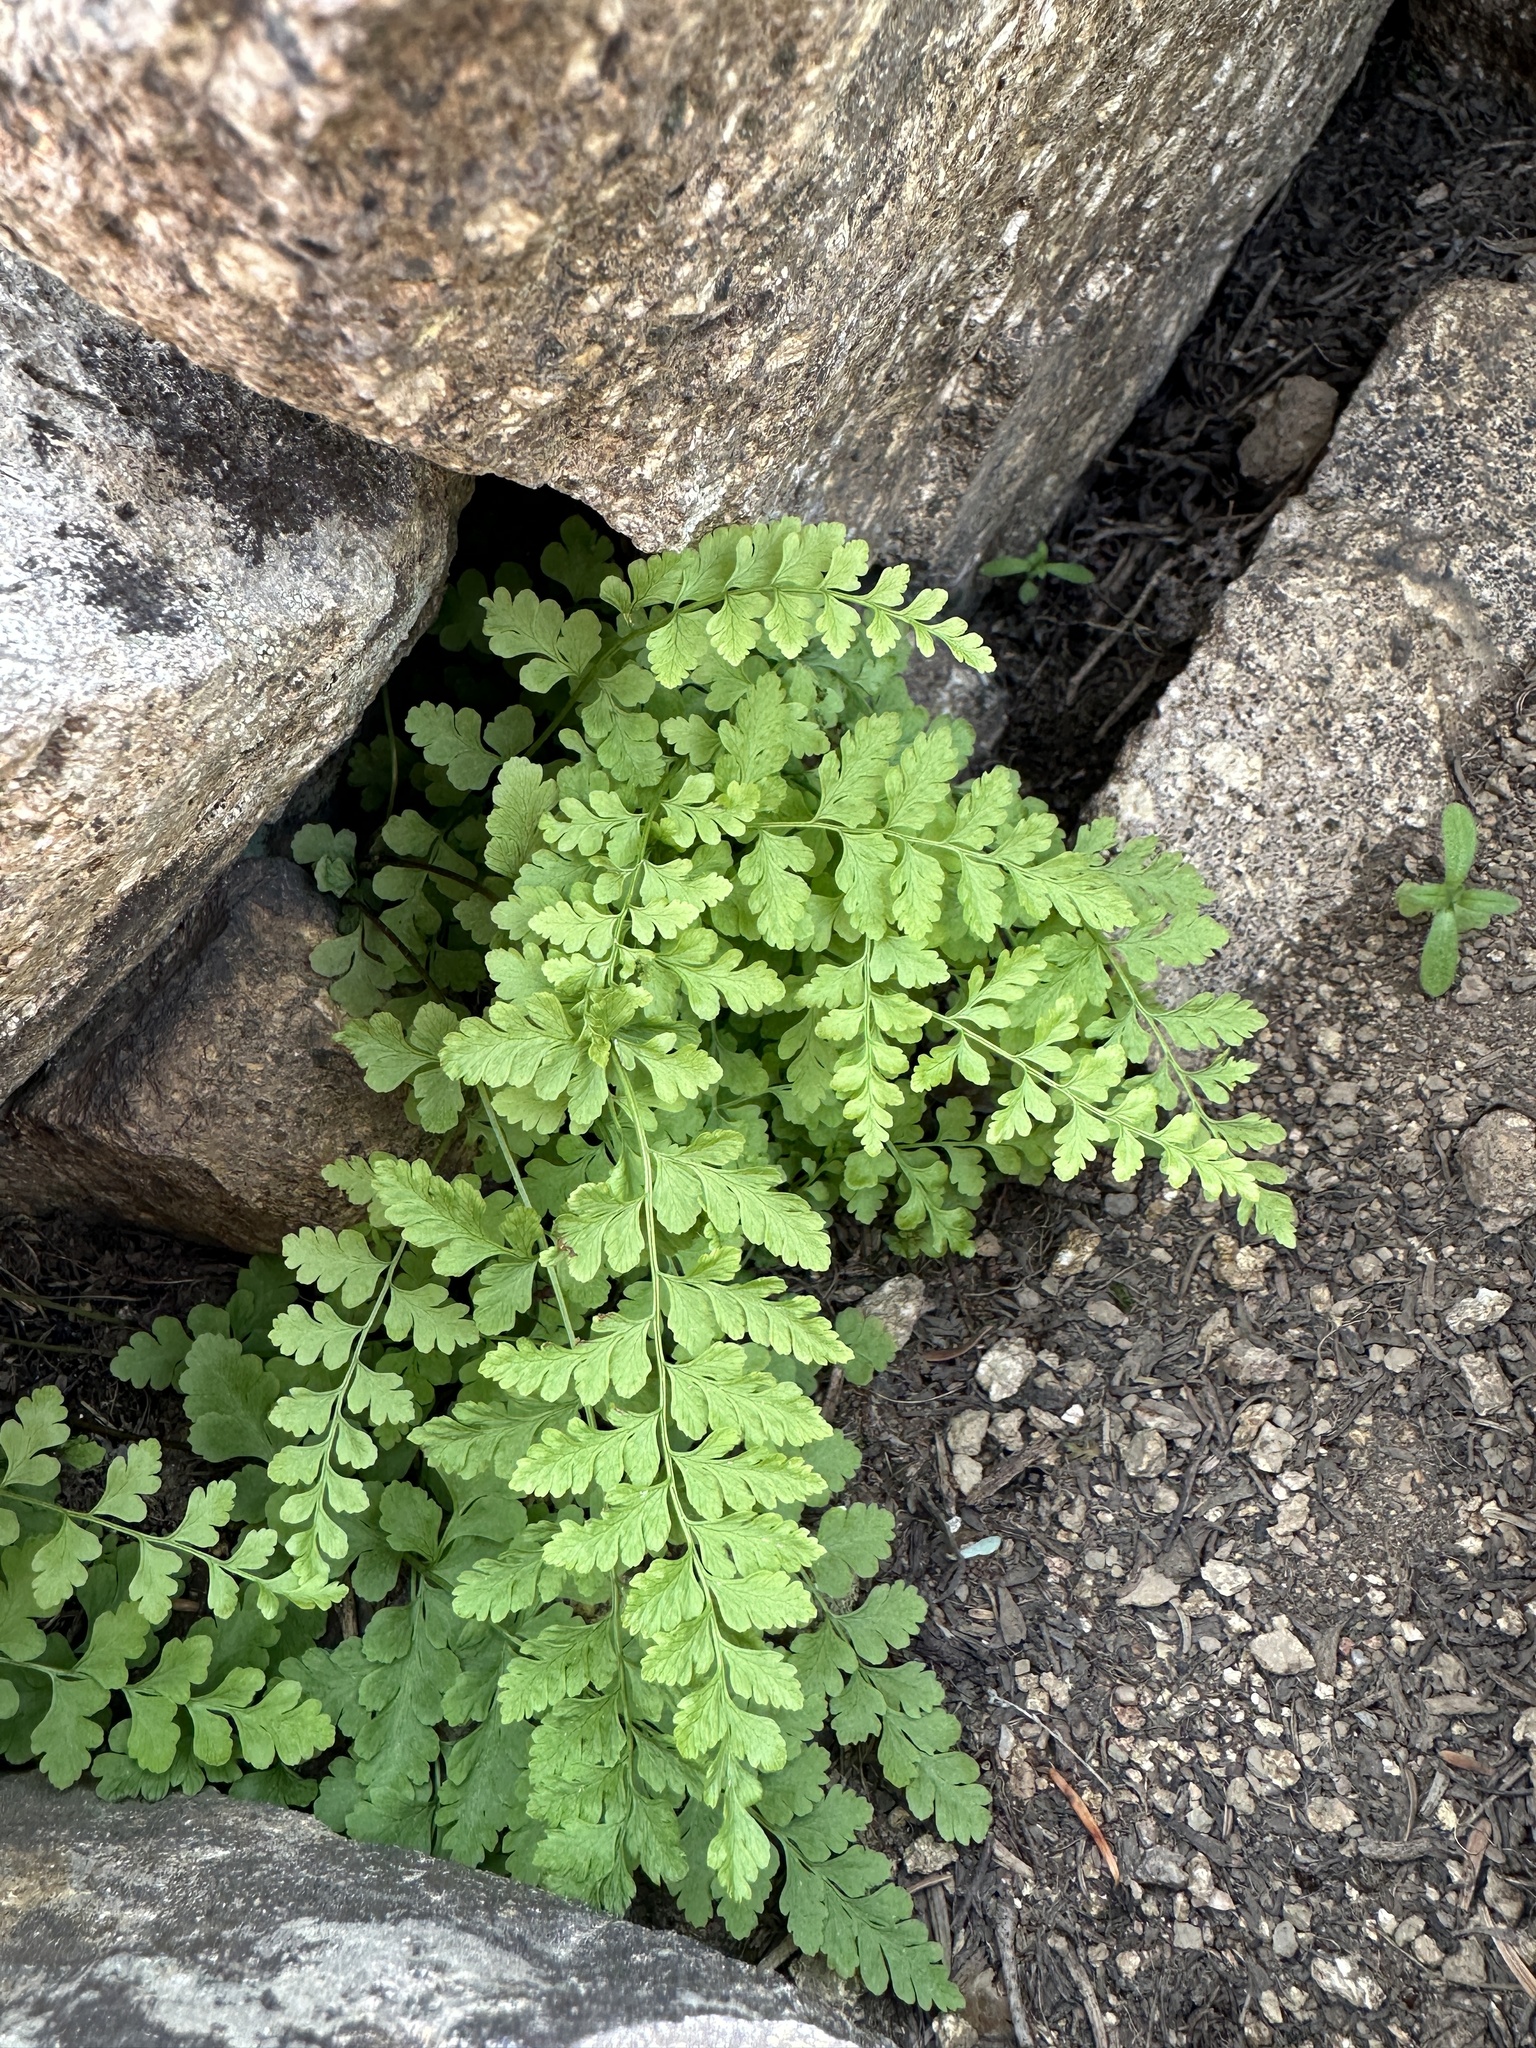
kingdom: Plantae
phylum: Tracheophyta
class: Polypodiopsida
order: Polypodiales
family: Cystopteridaceae
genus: Cystopteris
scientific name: Cystopteris fragilis
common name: Brittle bladder fern
